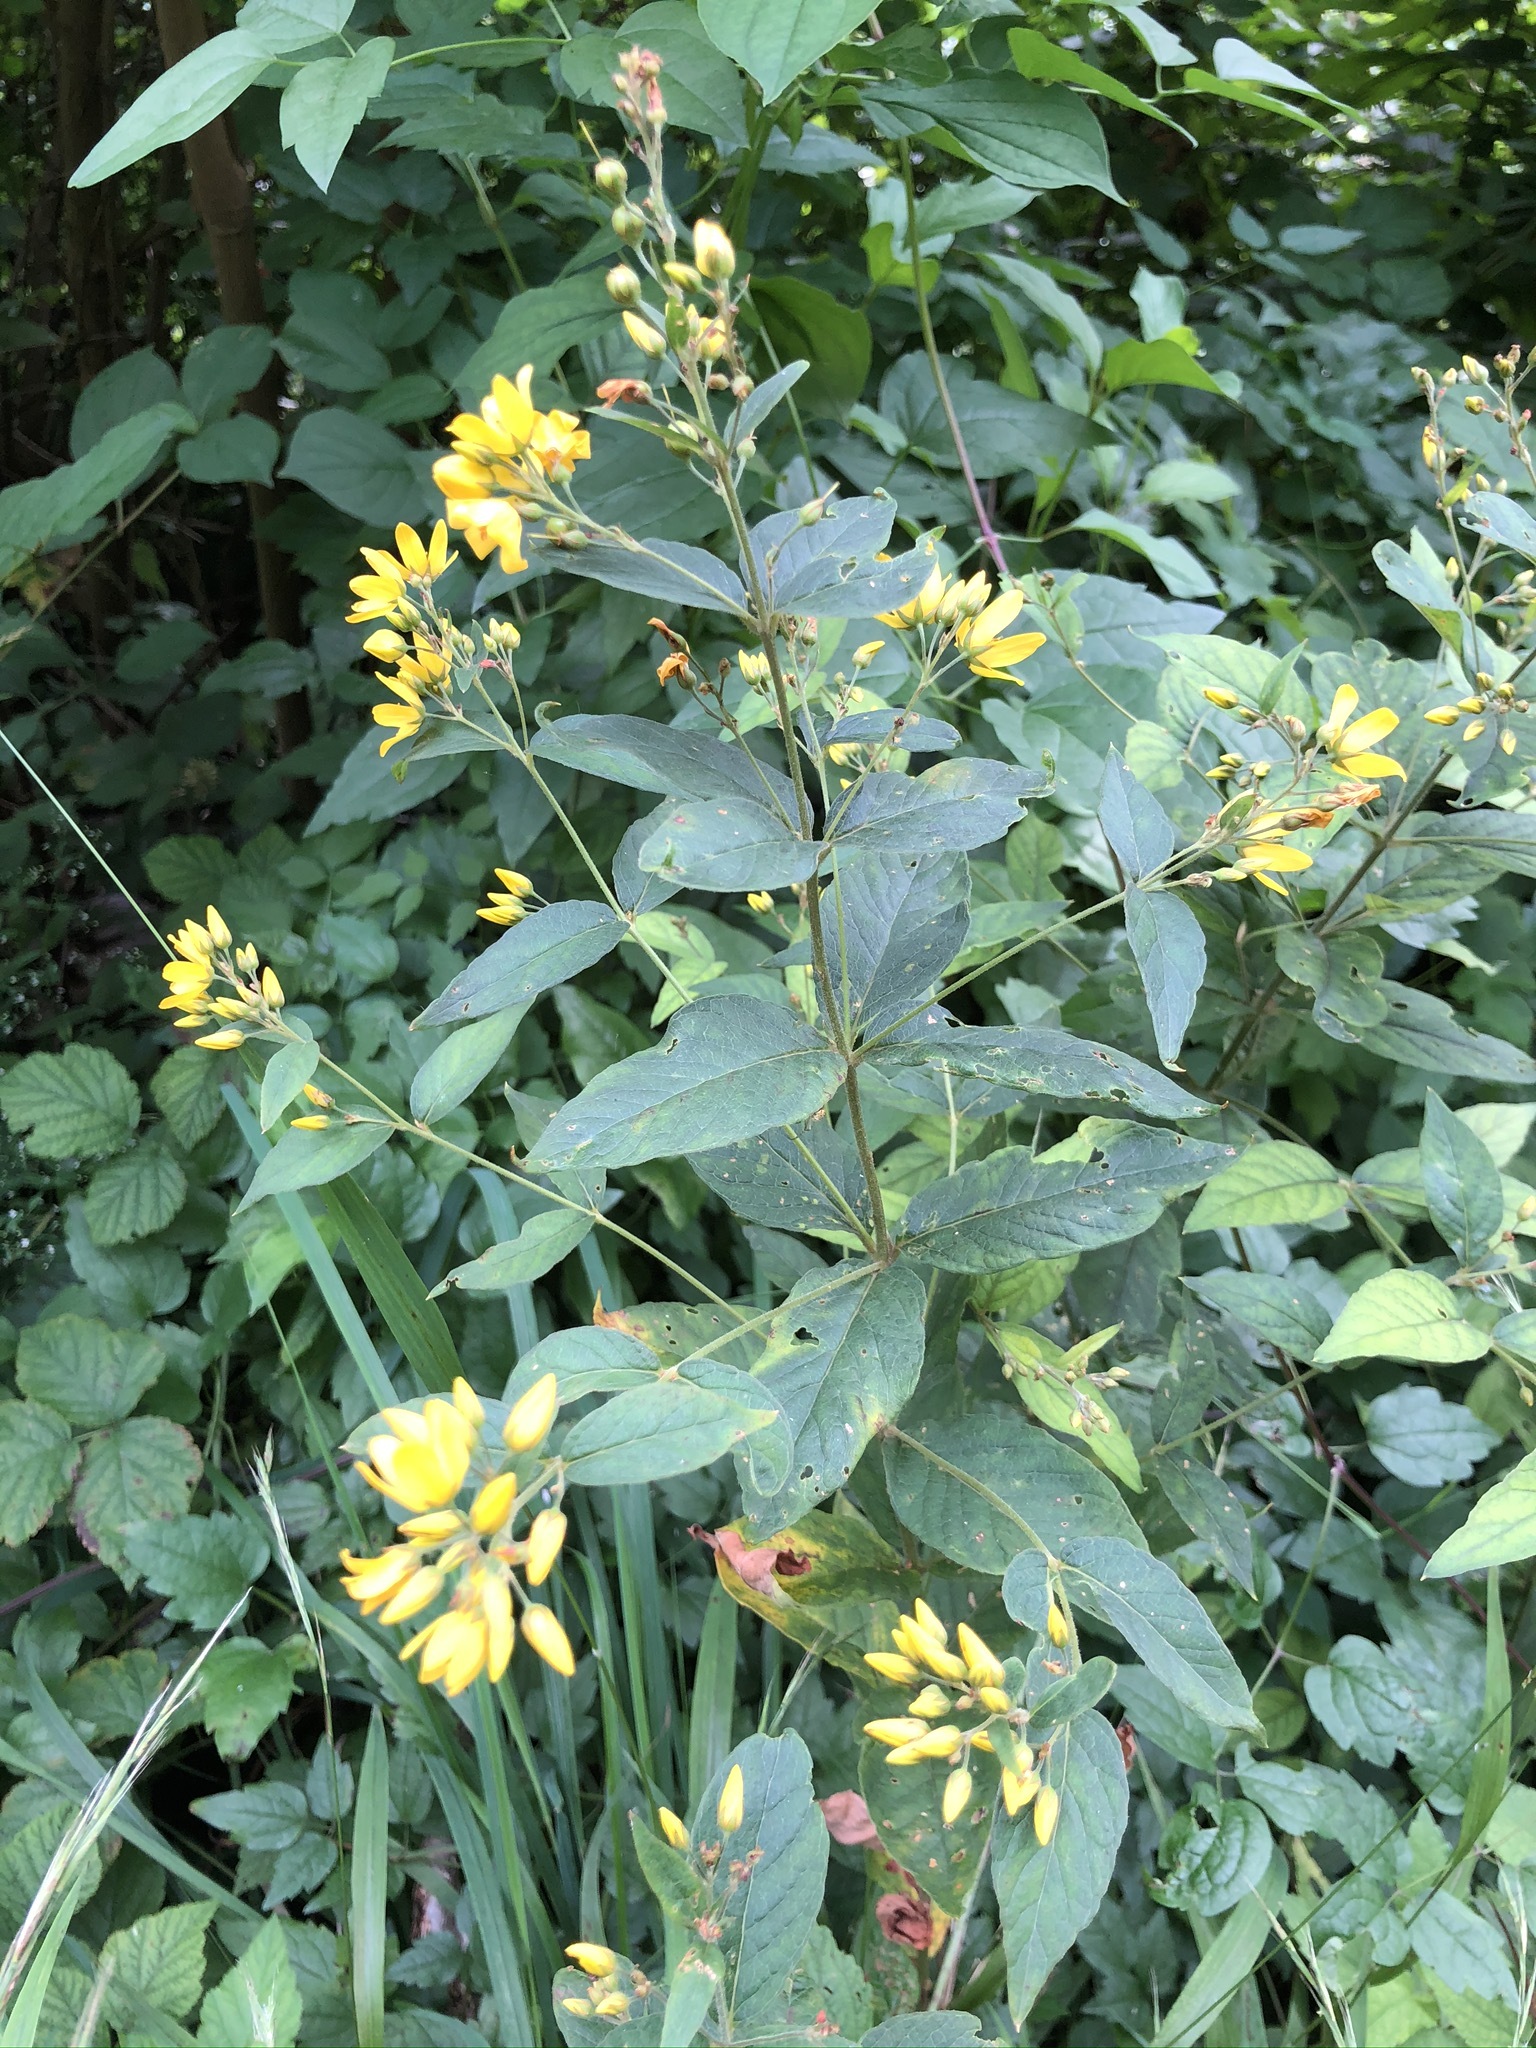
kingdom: Plantae
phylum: Tracheophyta
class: Magnoliopsida
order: Ericales
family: Primulaceae
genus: Lysimachia
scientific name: Lysimachia vulgaris
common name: Yellow loosestrife
